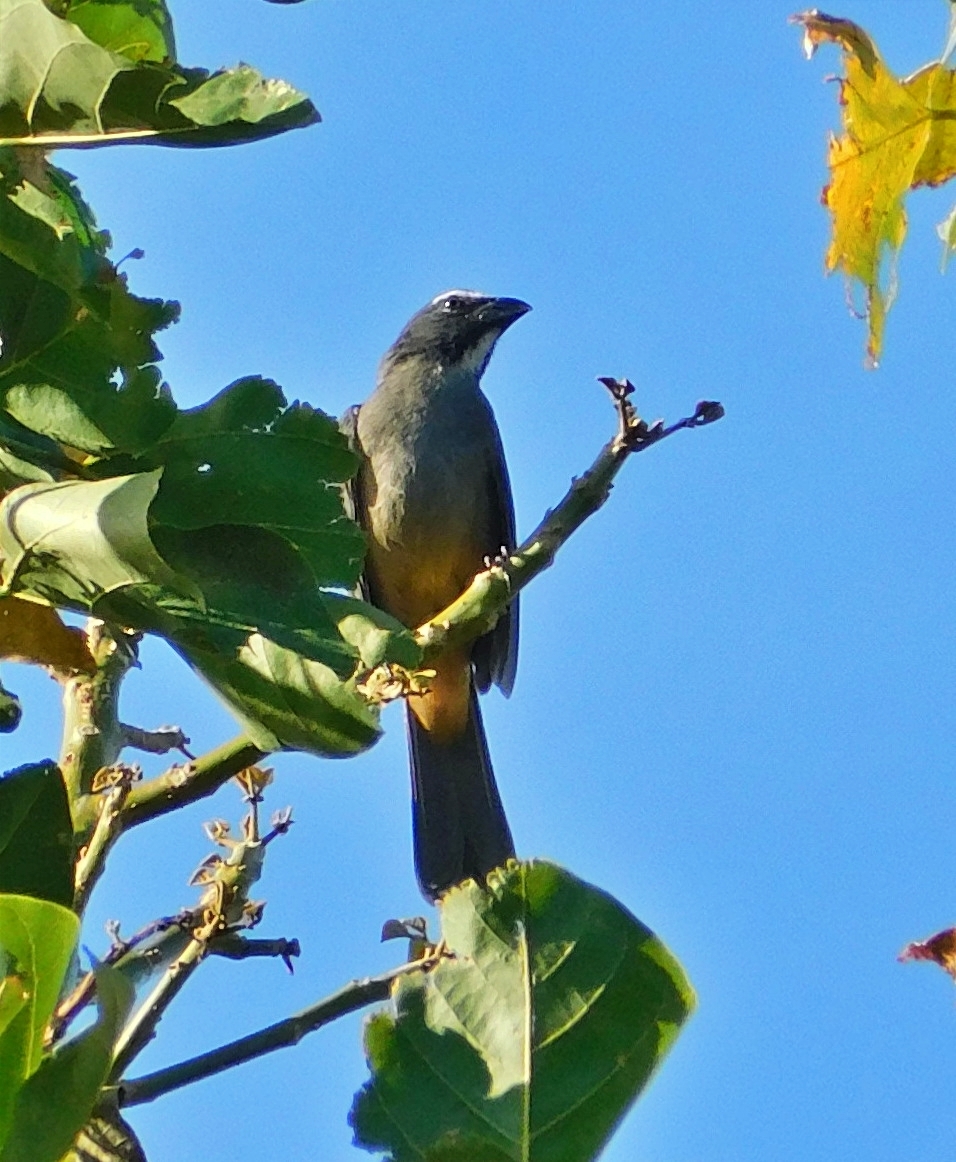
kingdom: Animalia
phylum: Chordata
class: Aves
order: Passeriformes
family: Thraupidae
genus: Saltator
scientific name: Saltator grandis
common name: Cinnamon-bellied saltator
